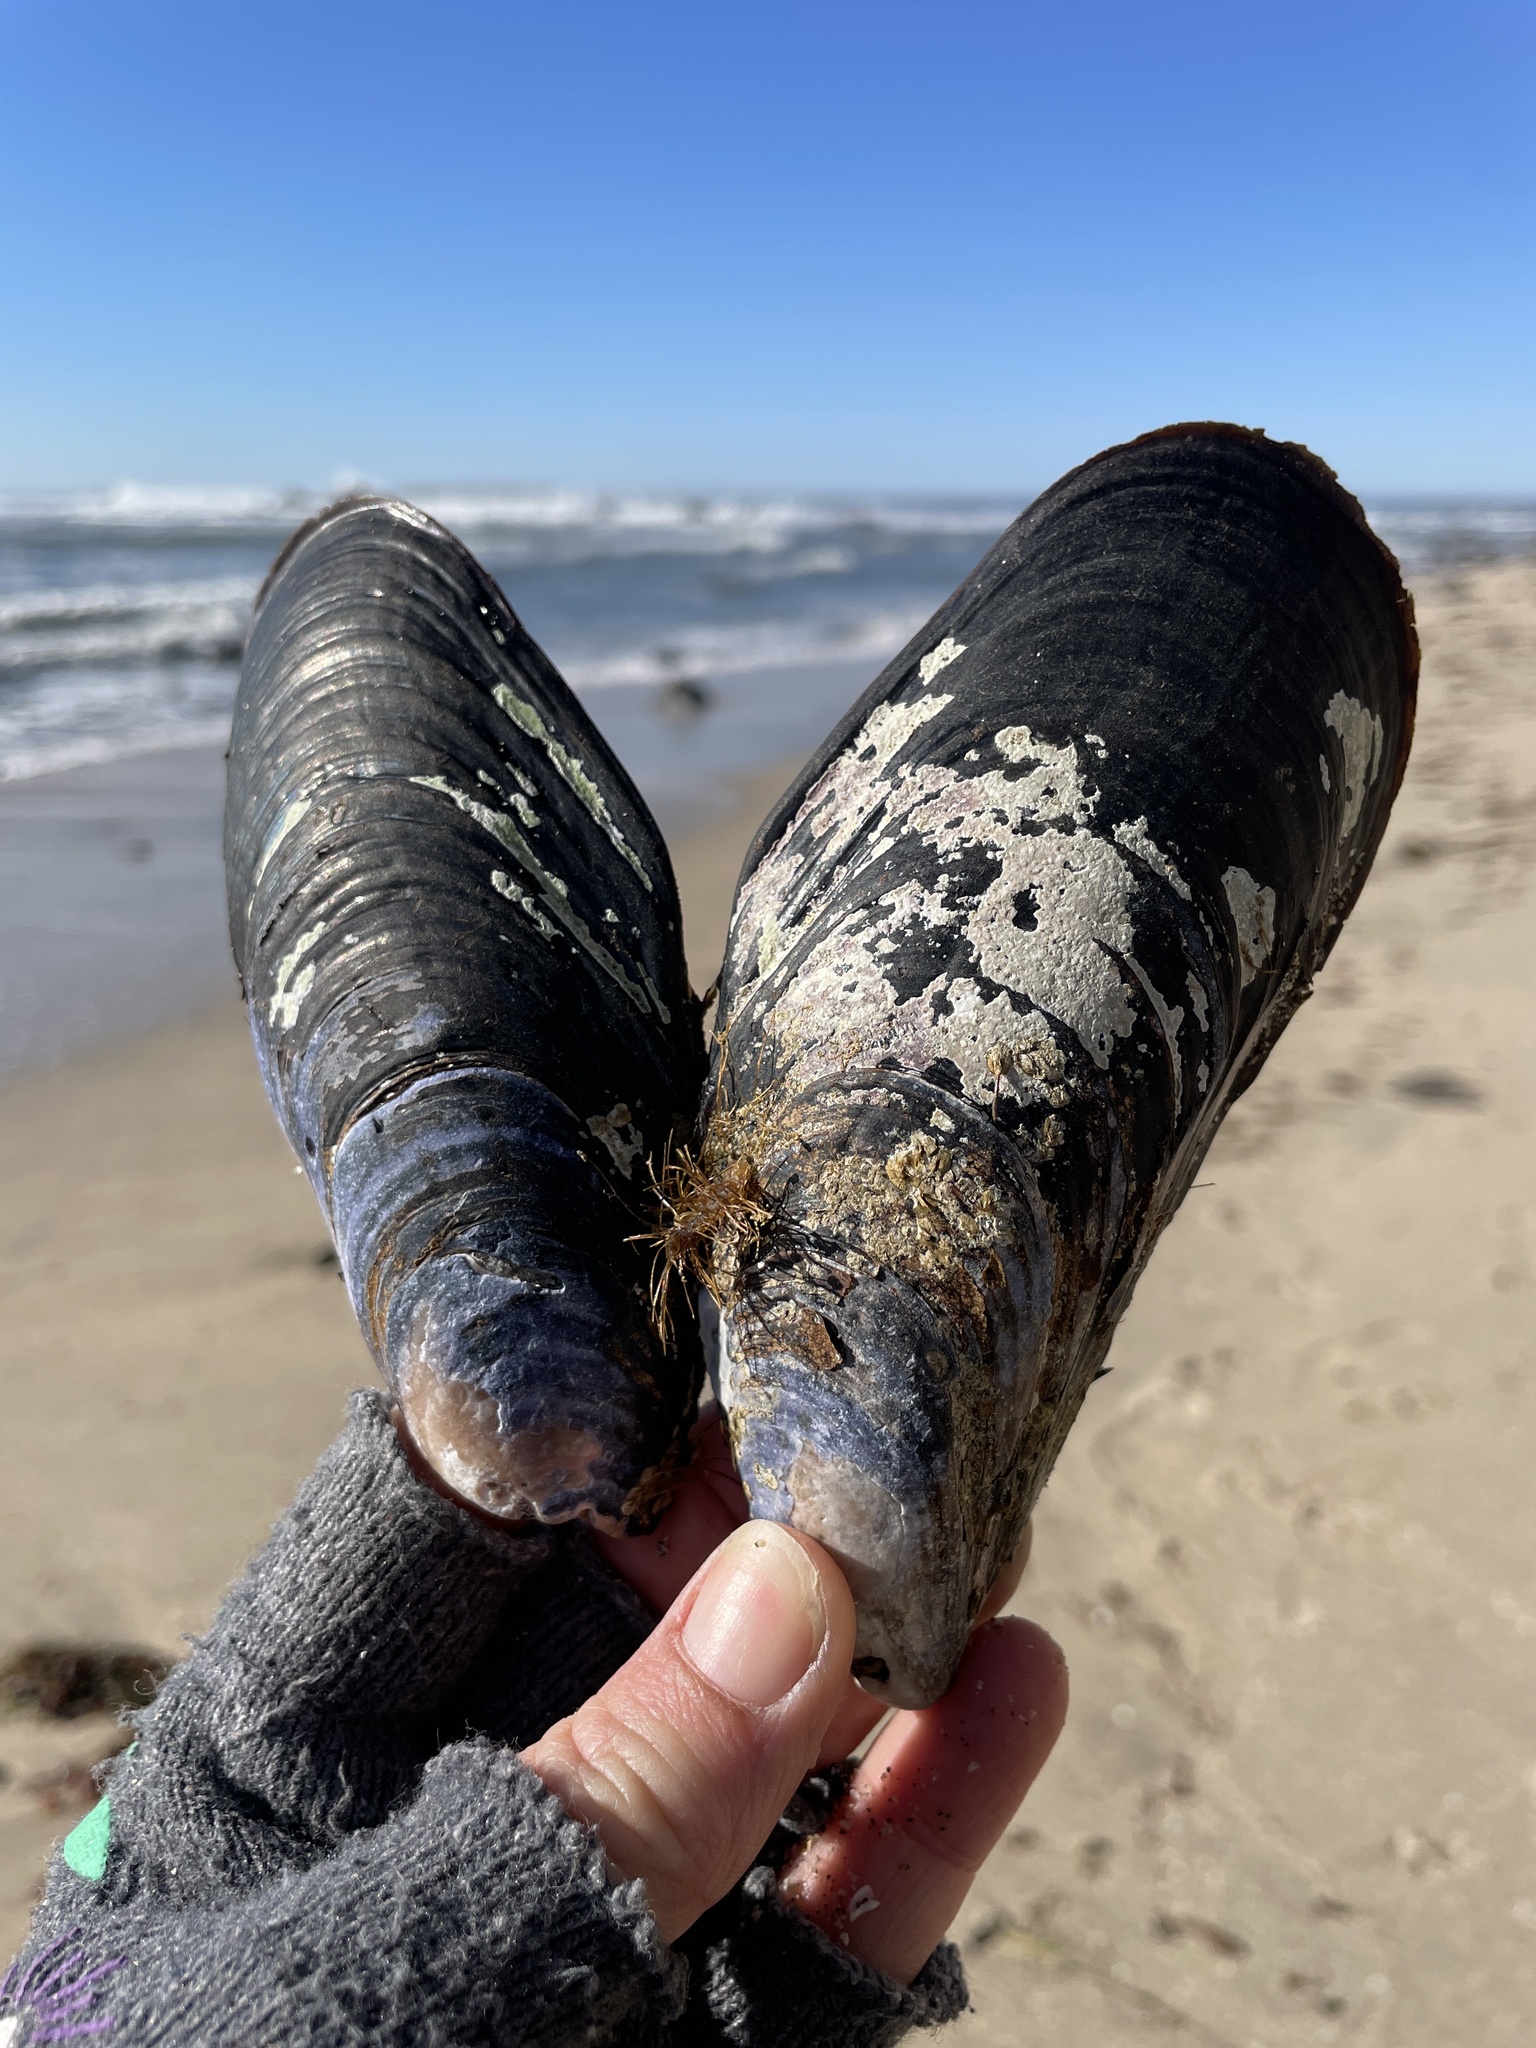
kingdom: Animalia
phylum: Mollusca
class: Bivalvia
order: Mytilida
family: Mytilidae
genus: Mytilus
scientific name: Mytilus californianus
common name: California mussel
